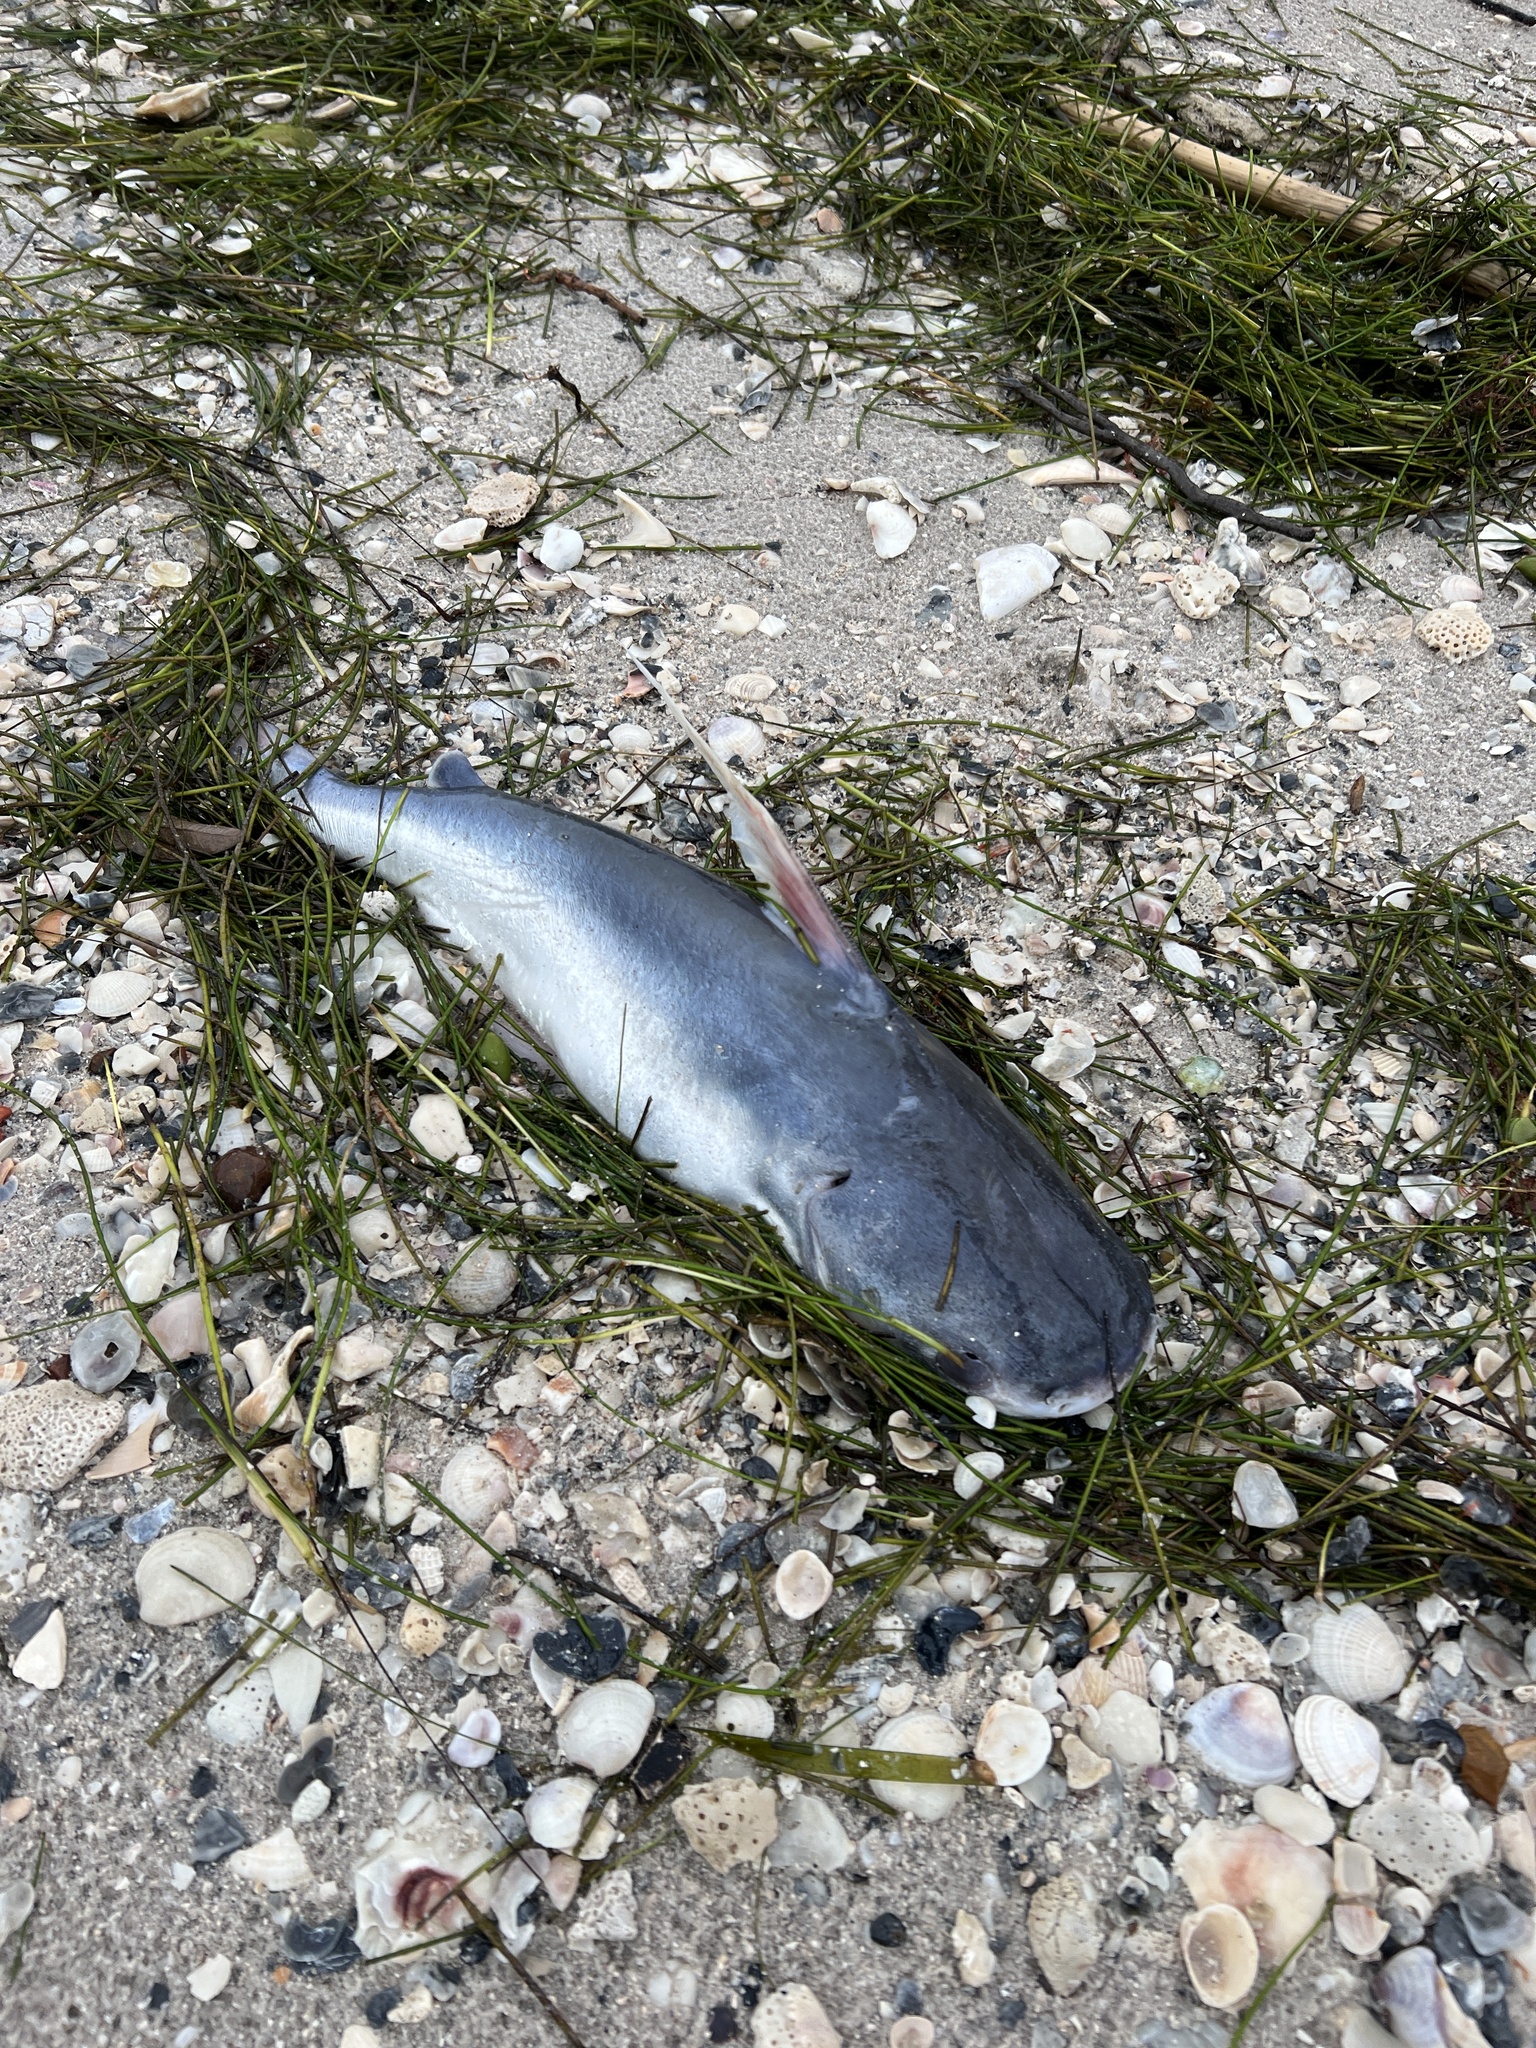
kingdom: Animalia
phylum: Chordata
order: Siluriformes
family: Ariidae
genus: Bagre
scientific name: Bagre marinus
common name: Gafftopsail sea catfish
